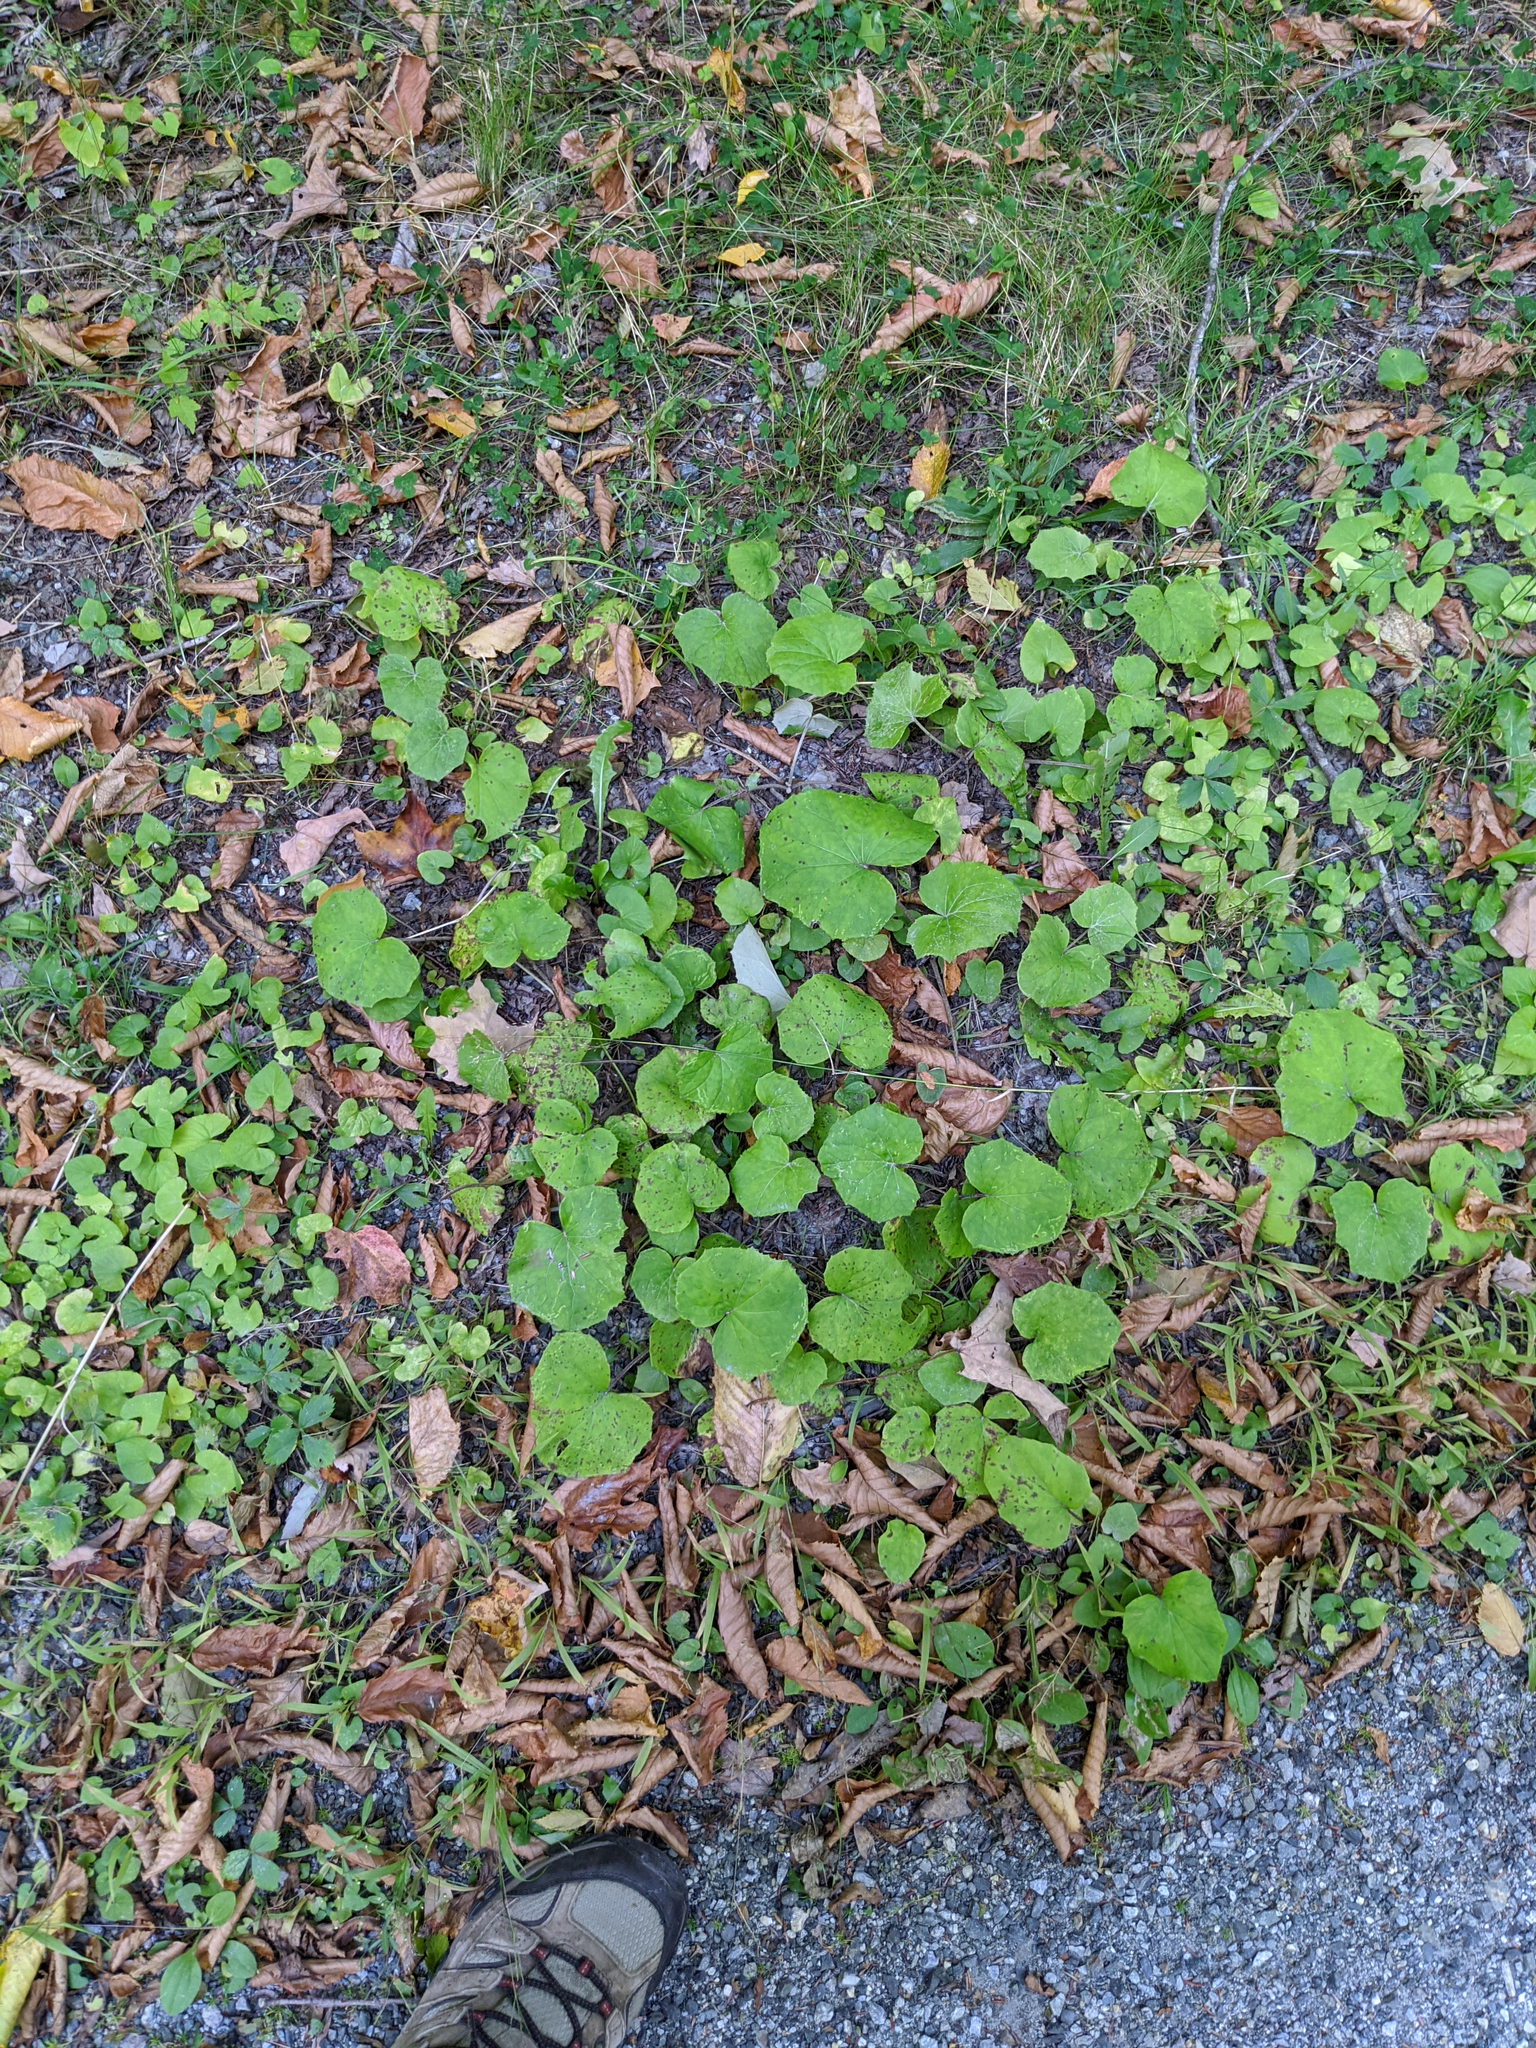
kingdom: Plantae
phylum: Tracheophyta
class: Magnoliopsida
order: Asterales
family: Asteraceae
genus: Tussilago
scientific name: Tussilago farfara
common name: Coltsfoot
